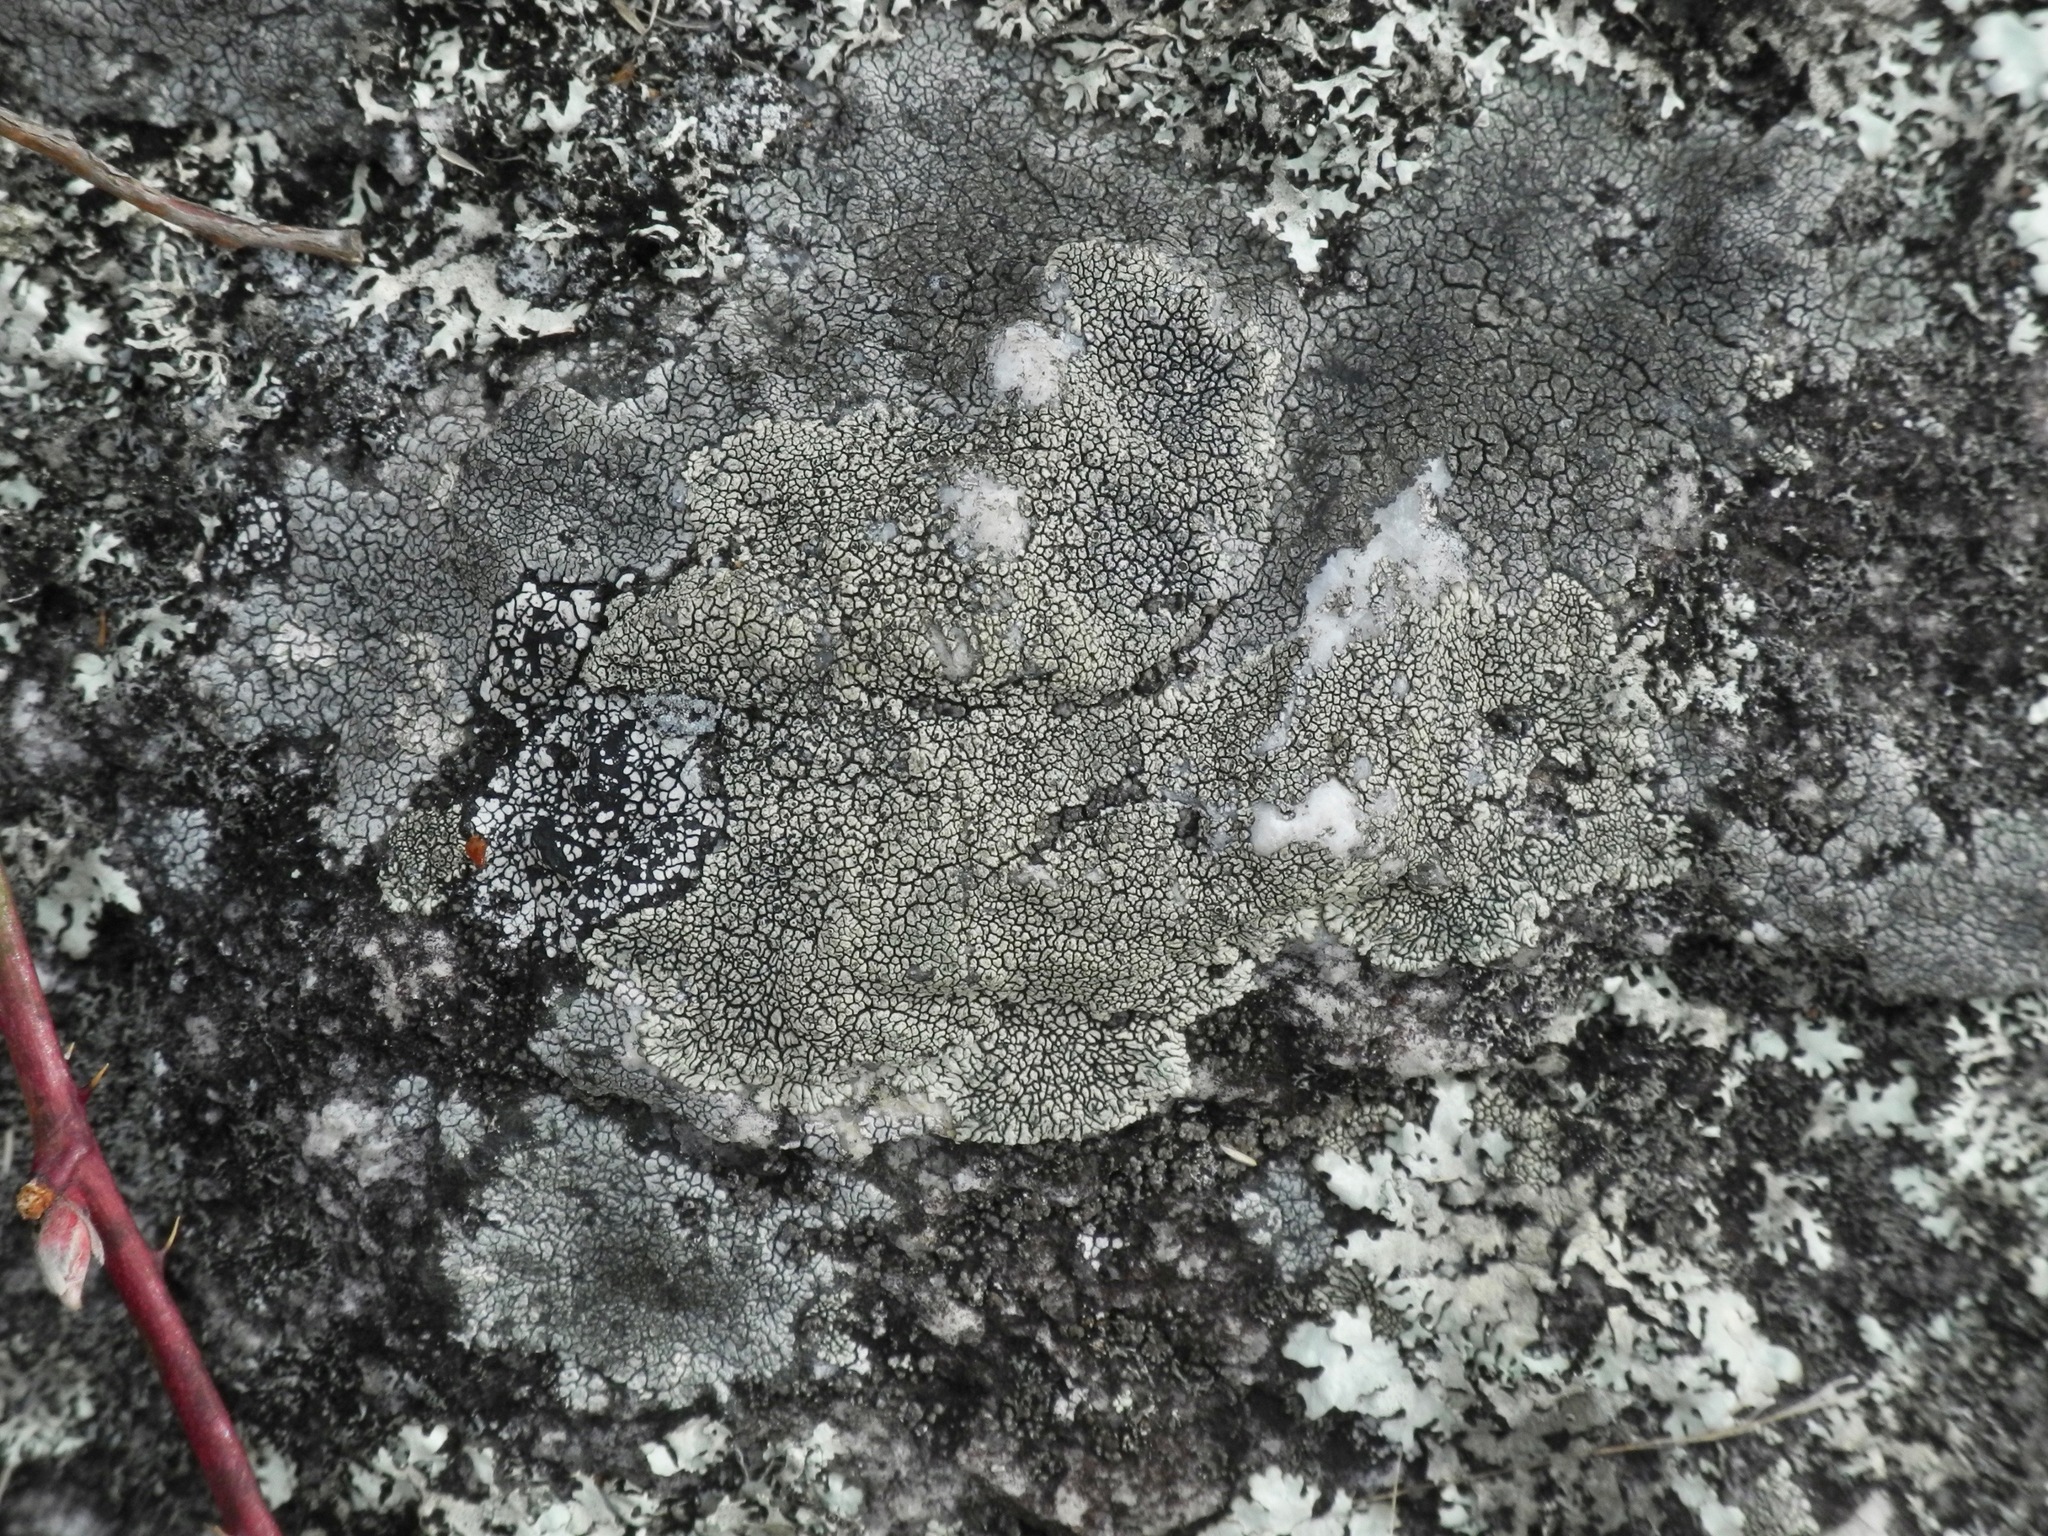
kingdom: Fungi
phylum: Ascomycota
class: Lecanoromycetes
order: Caliciales
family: Caliciaceae
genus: Dimelaena
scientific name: Dimelaena oreina
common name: Golden moonglow lichen
